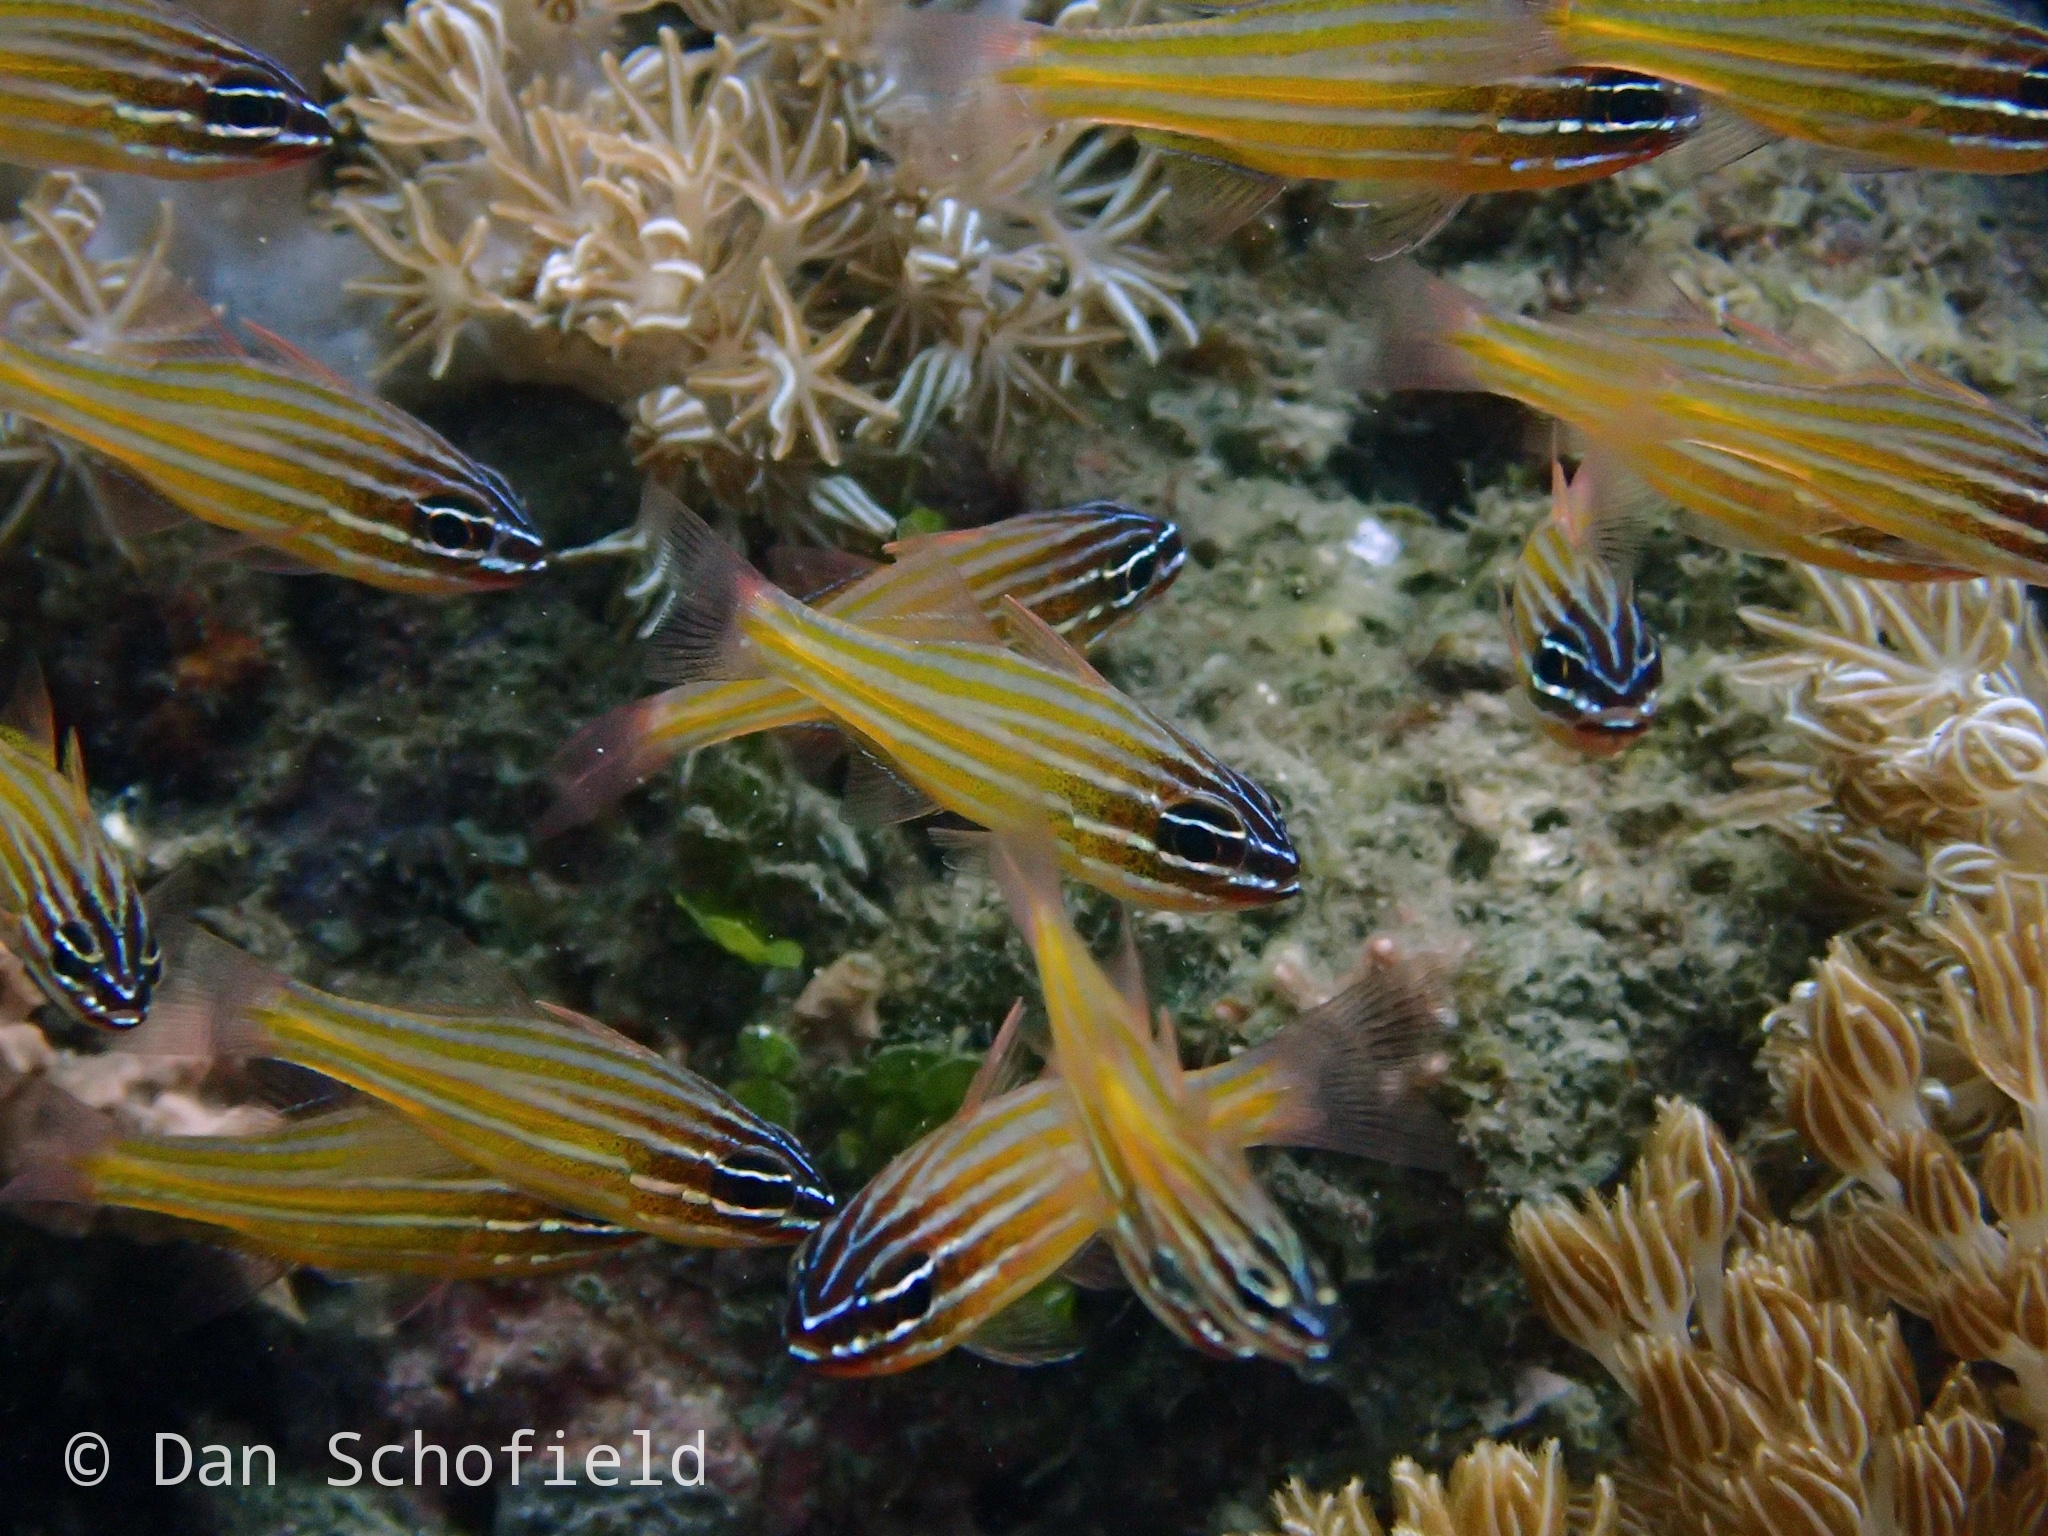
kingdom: Animalia
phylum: Chordata
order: Perciformes
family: Apogonidae
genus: Ostorhinchus
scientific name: Ostorhinchus cyanosoma
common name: Yellow-striped cardinalfish
